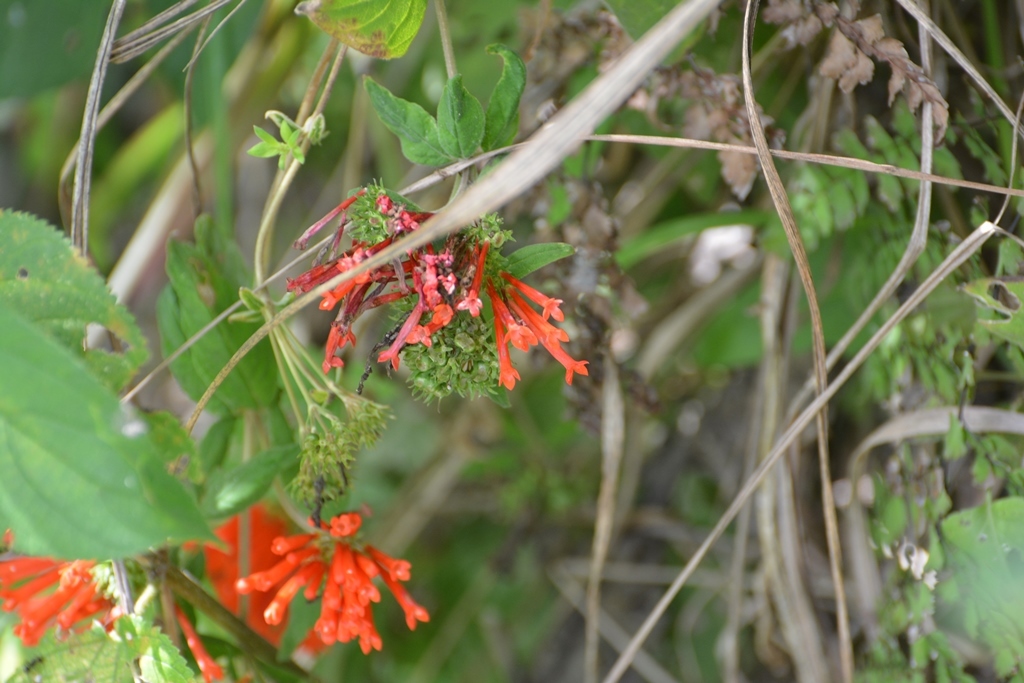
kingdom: Plantae
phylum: Tracheophyta
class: Magnoliopsida
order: Gentianales
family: Rubiaceae
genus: Bouvardia
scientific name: Bouvardia leiantha
